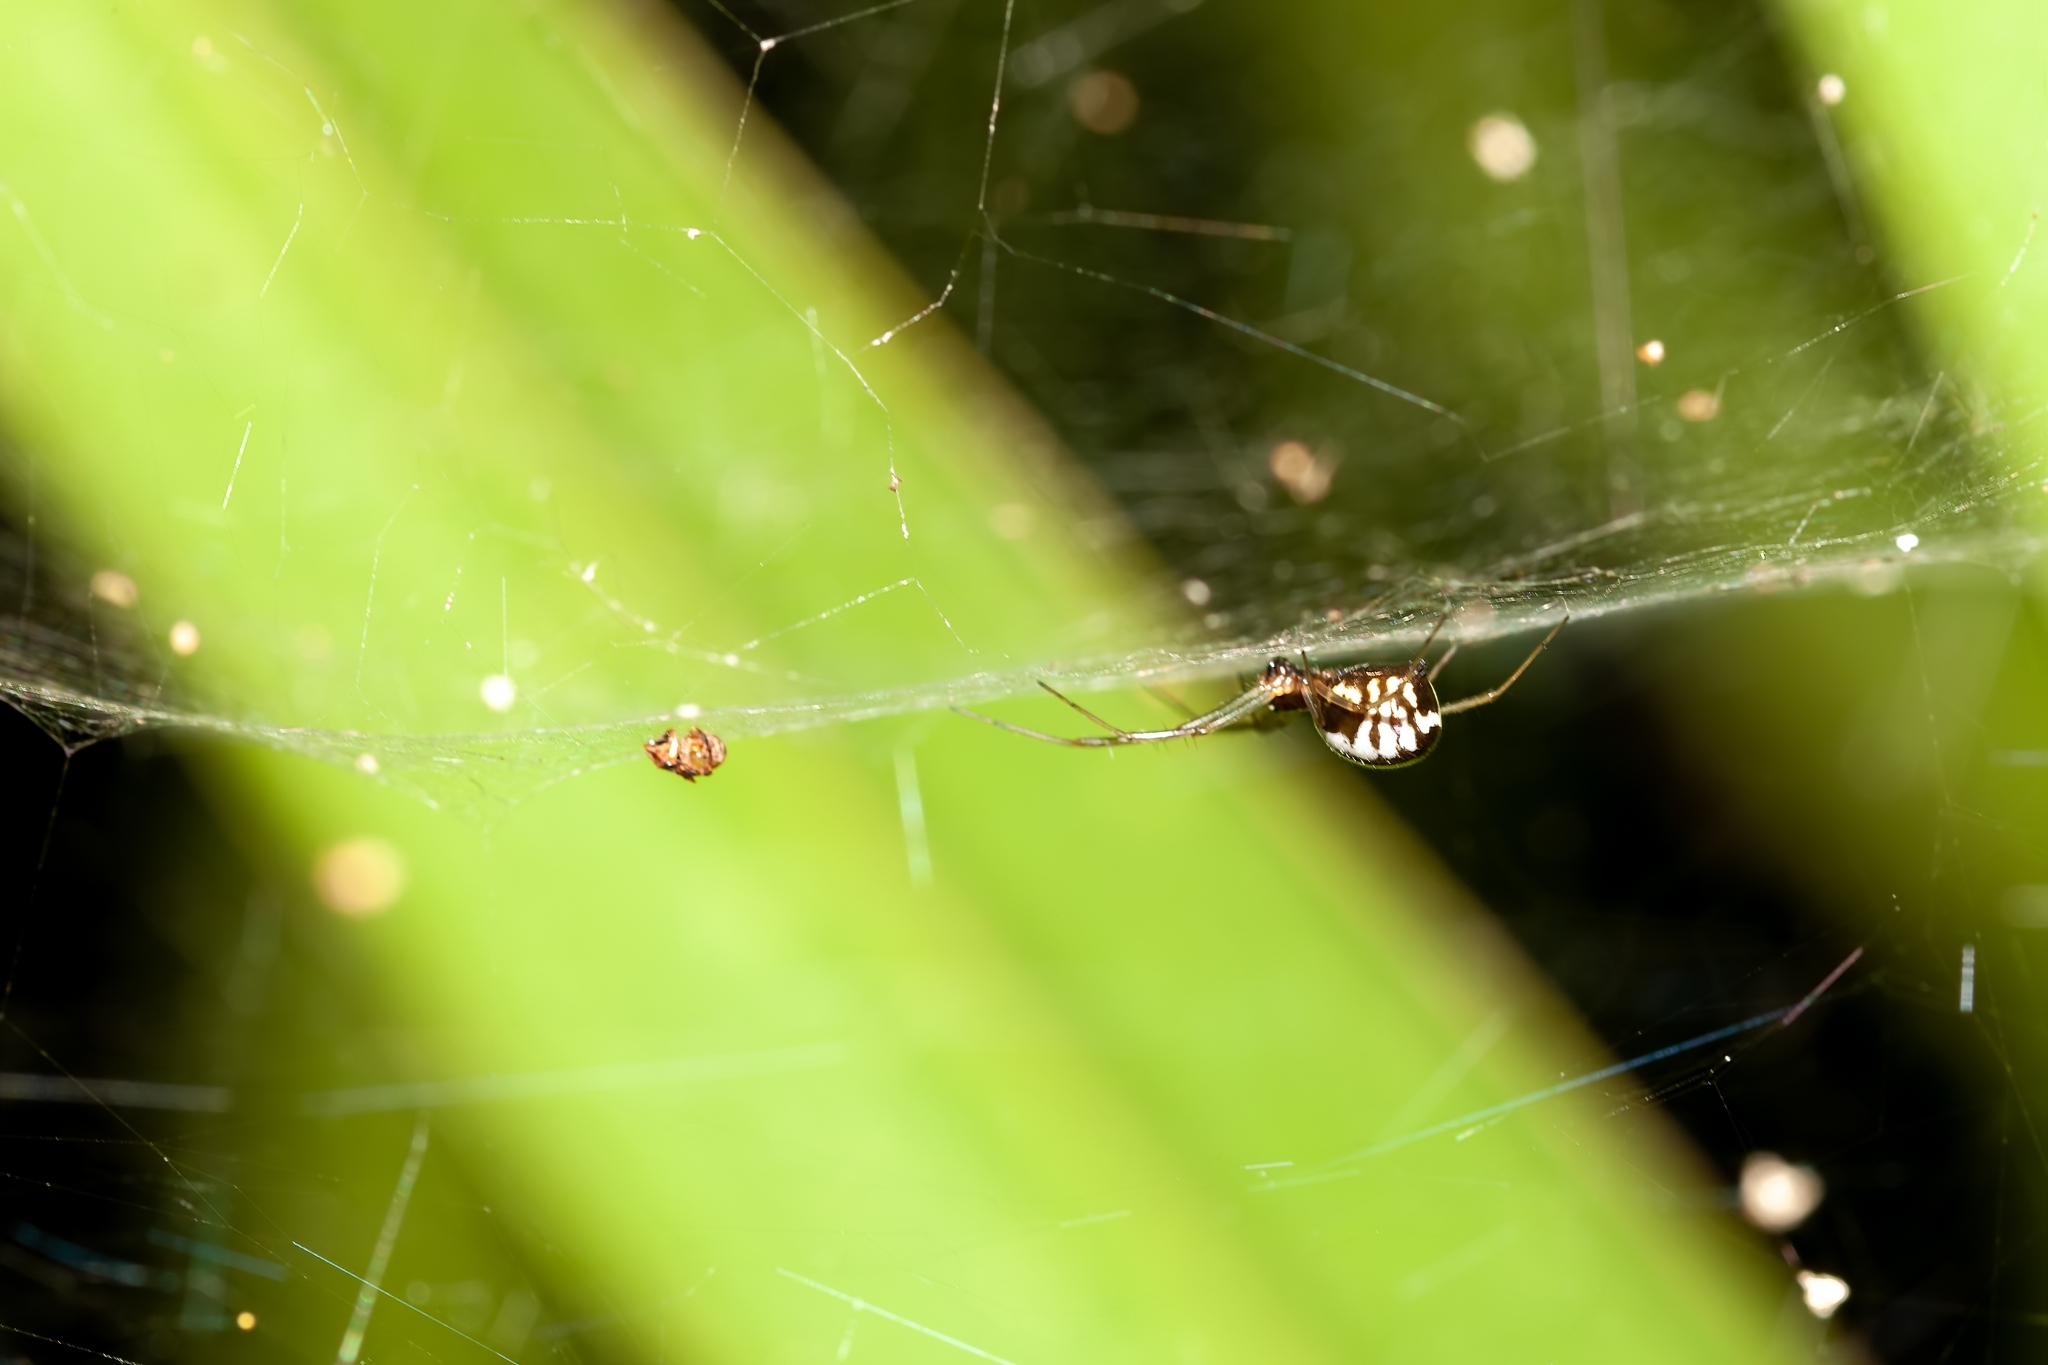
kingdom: Animalia
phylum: Arthropoda
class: Arachnida
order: Araneae
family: Linyphiidae
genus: Frontinella
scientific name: Frontinella pyramitela
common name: Bowl-and-doily spider
